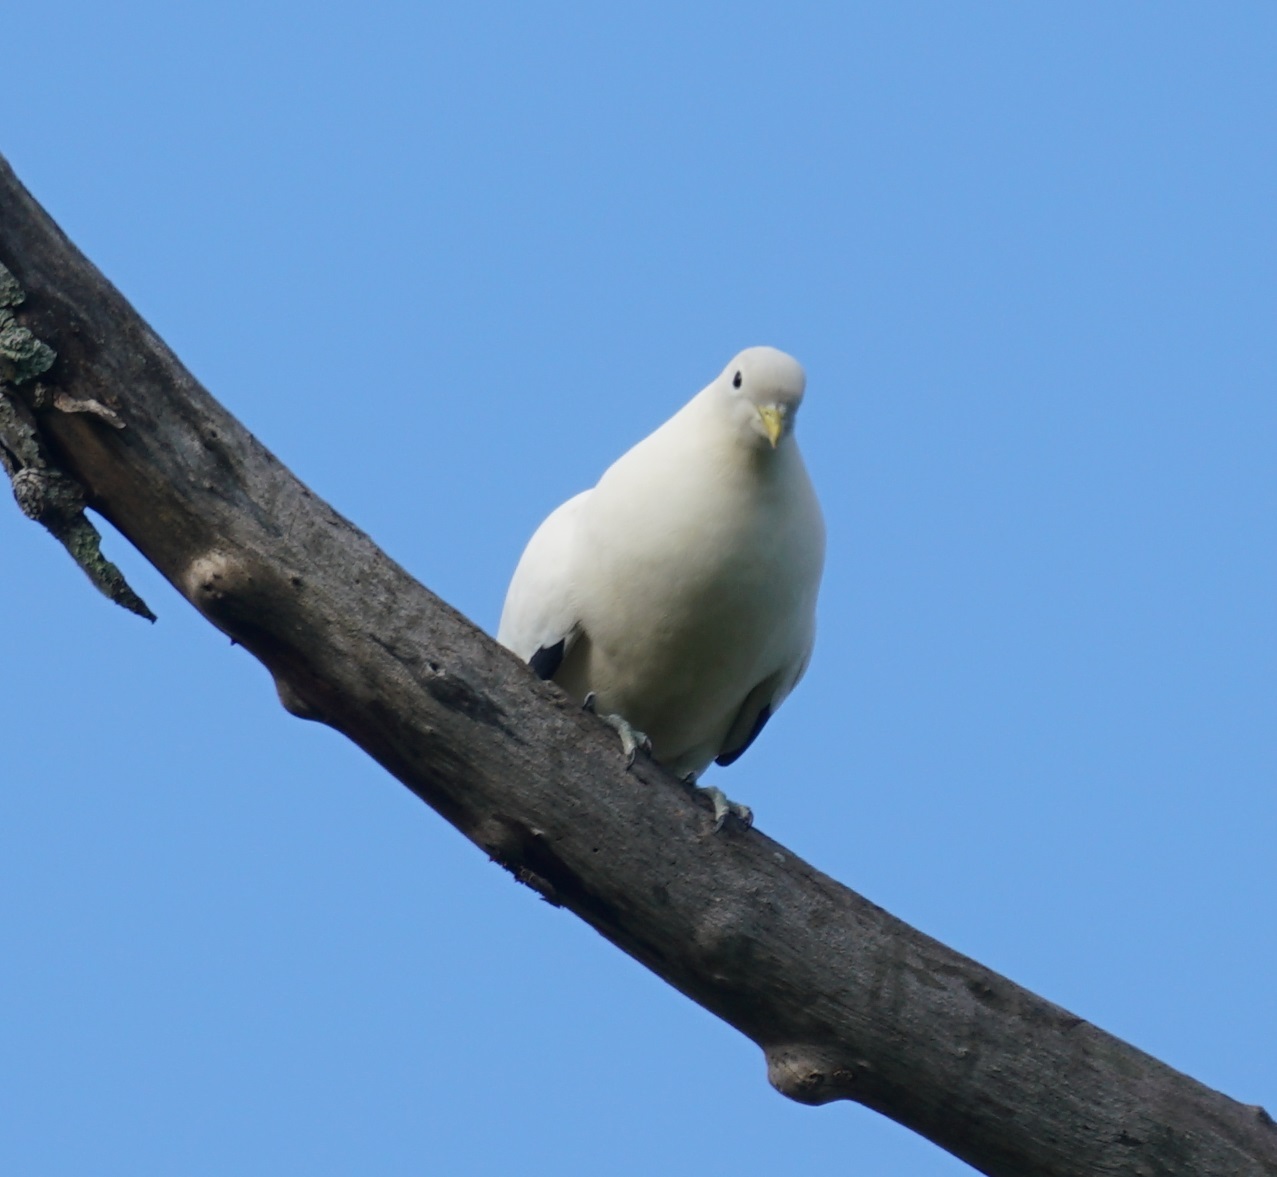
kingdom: Animalia
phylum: Chordata
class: Aves
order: Columbiformes
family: Columbidae
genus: Ducula
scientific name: Ducula spilorrhoa
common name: Torresian imperial pigeon
